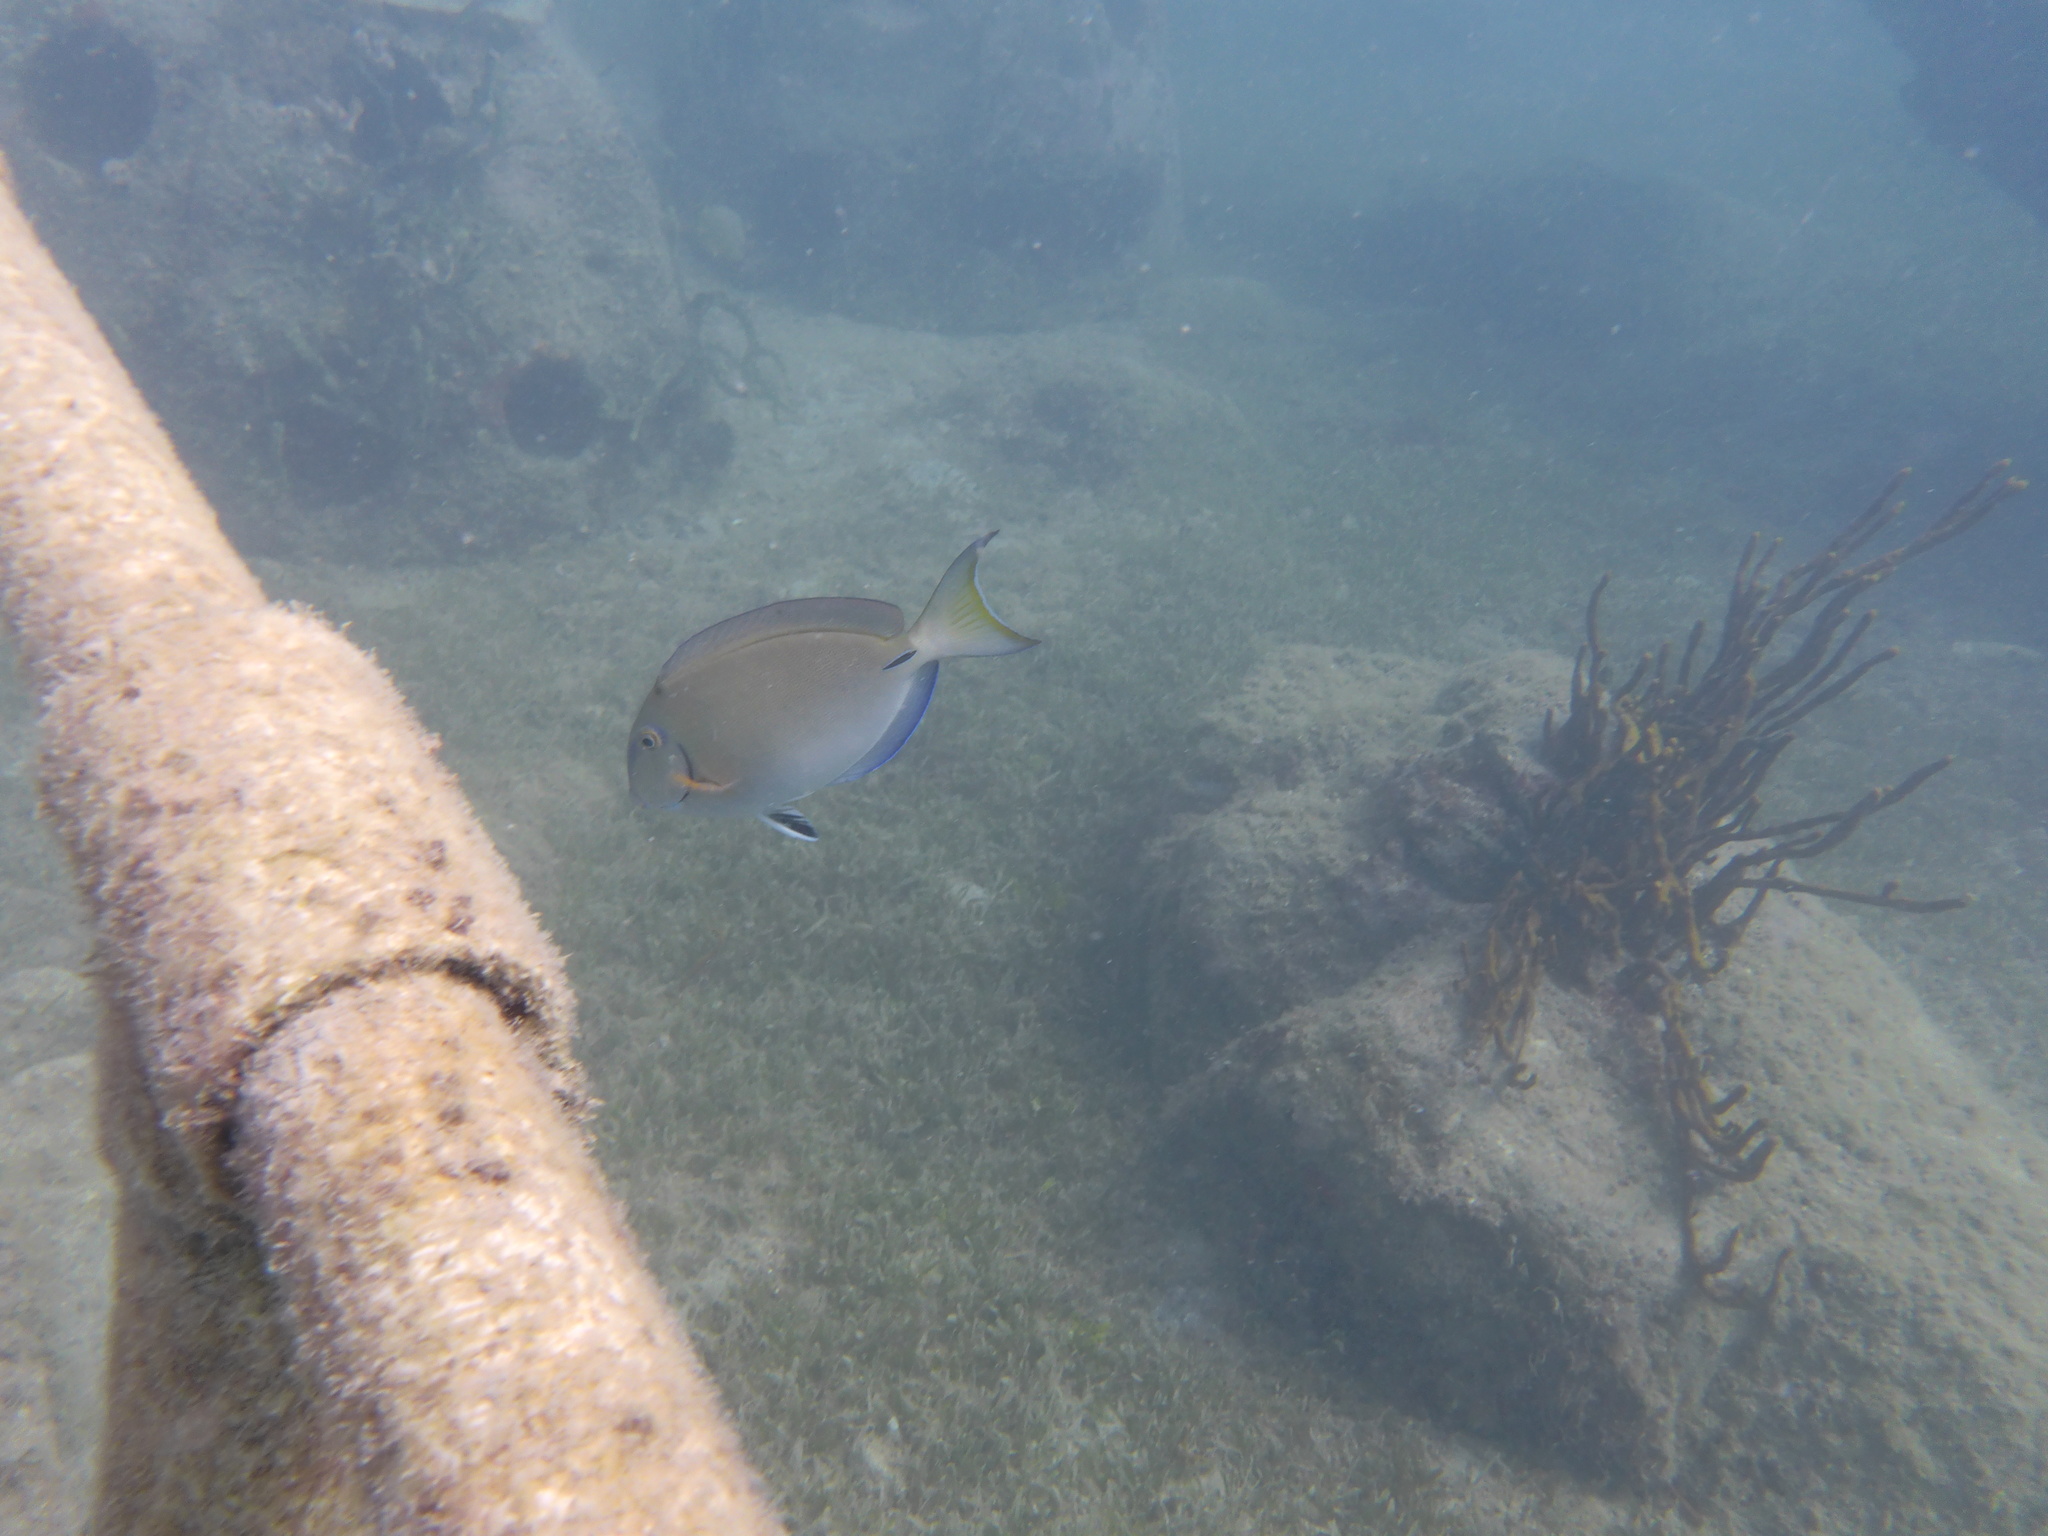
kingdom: Animalia
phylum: Chordata
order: Perciformes
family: Acanthuridae
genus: Acanthurus
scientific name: Acanthurus bahianus
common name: Ocean surgeon
